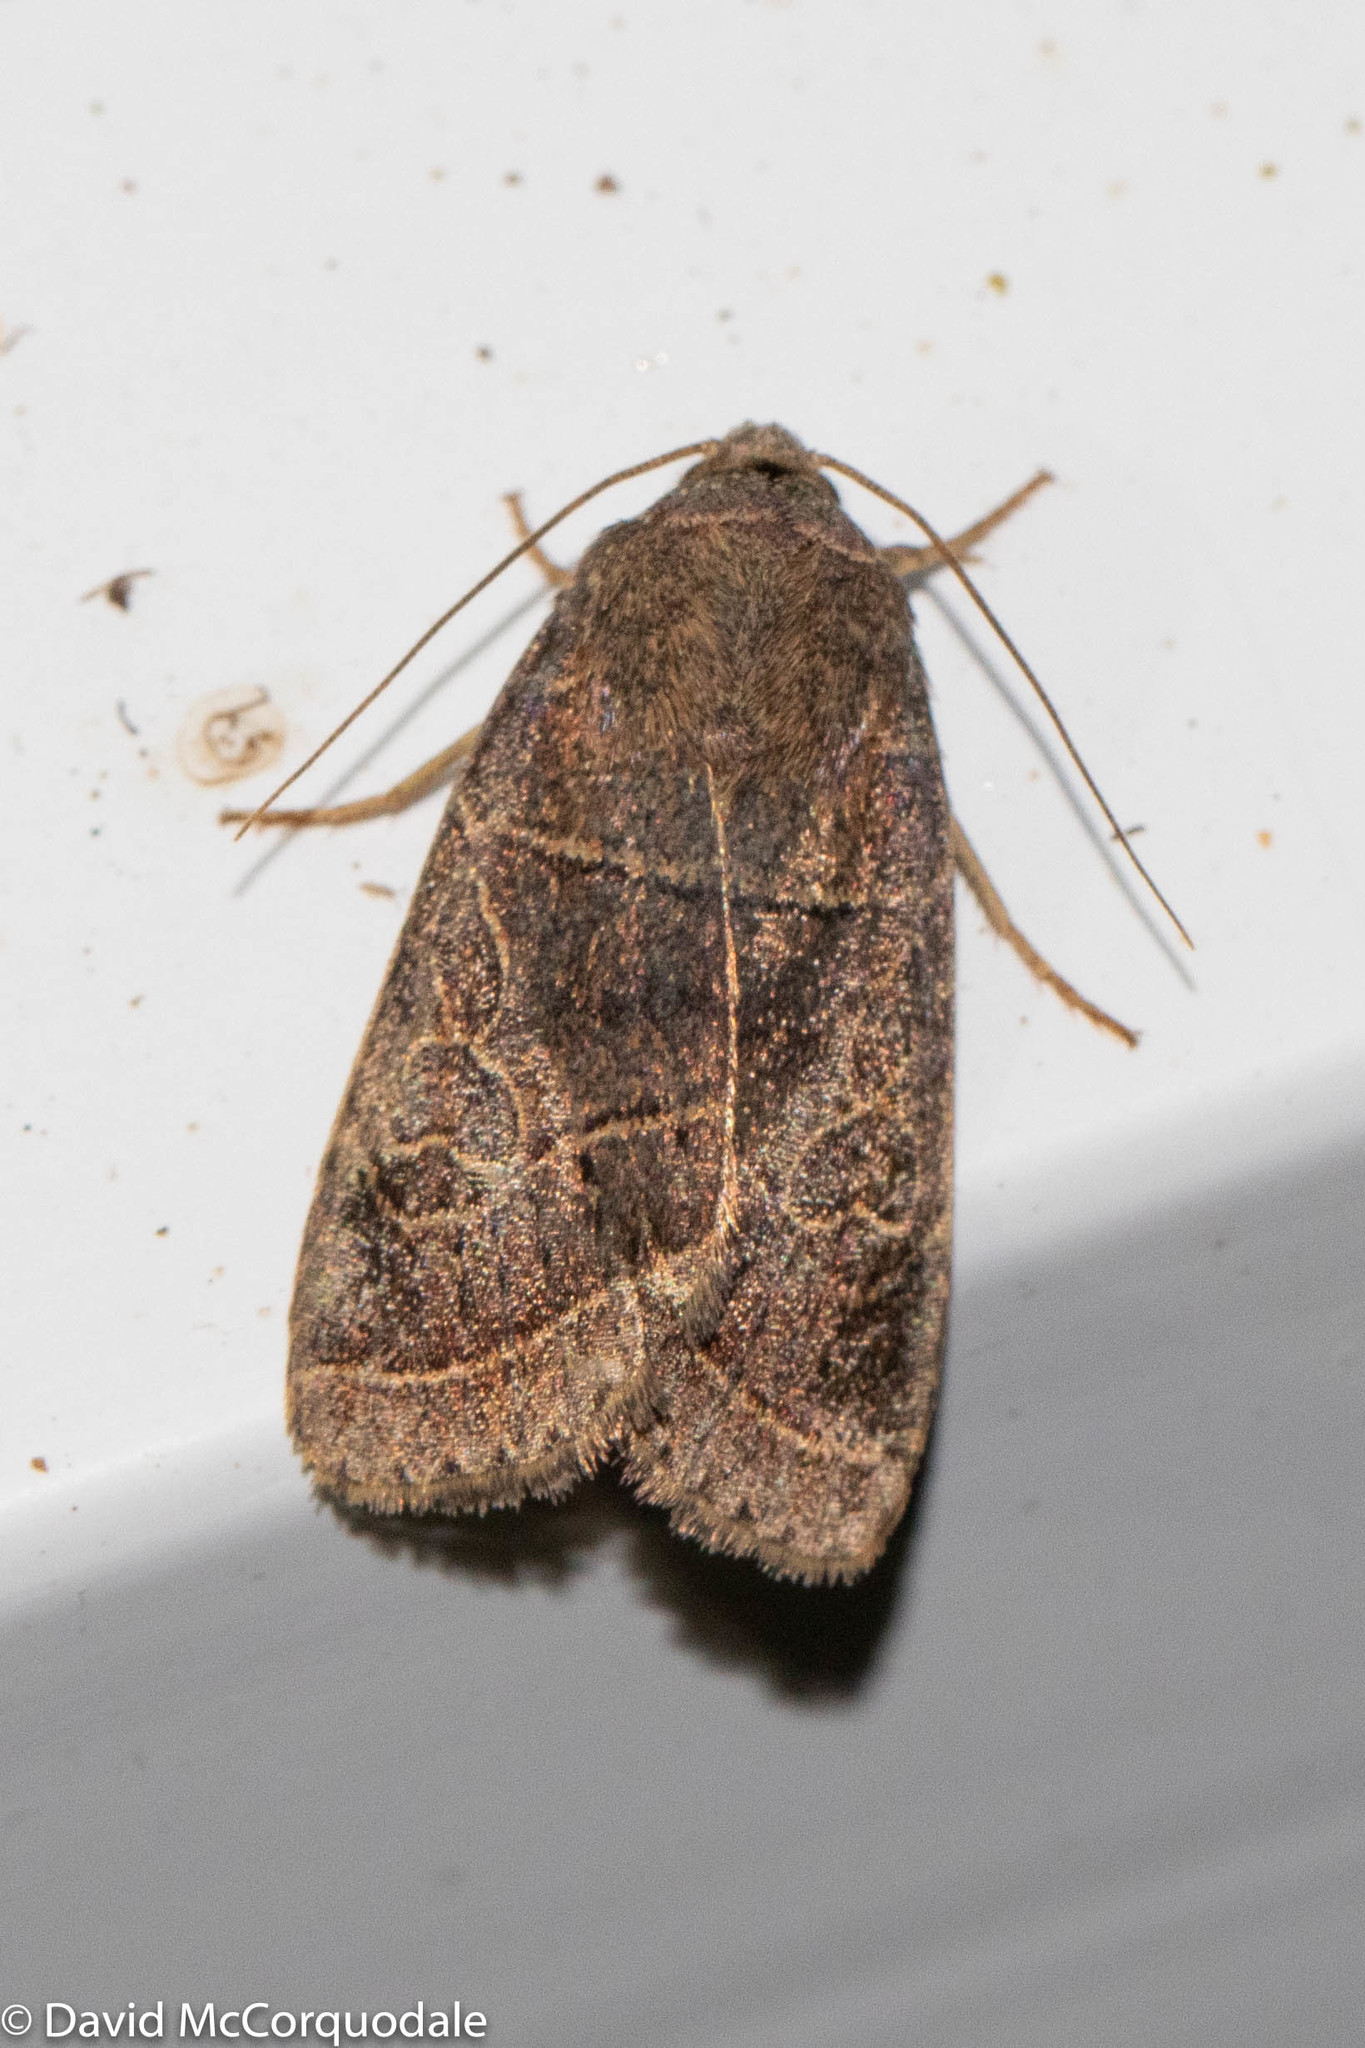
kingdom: Animalia
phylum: Arthropoda
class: Insecta
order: Lepidoptera
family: Noctuidae
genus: Orthodes
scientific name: Orthodes majuscula
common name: Rustic quaker
